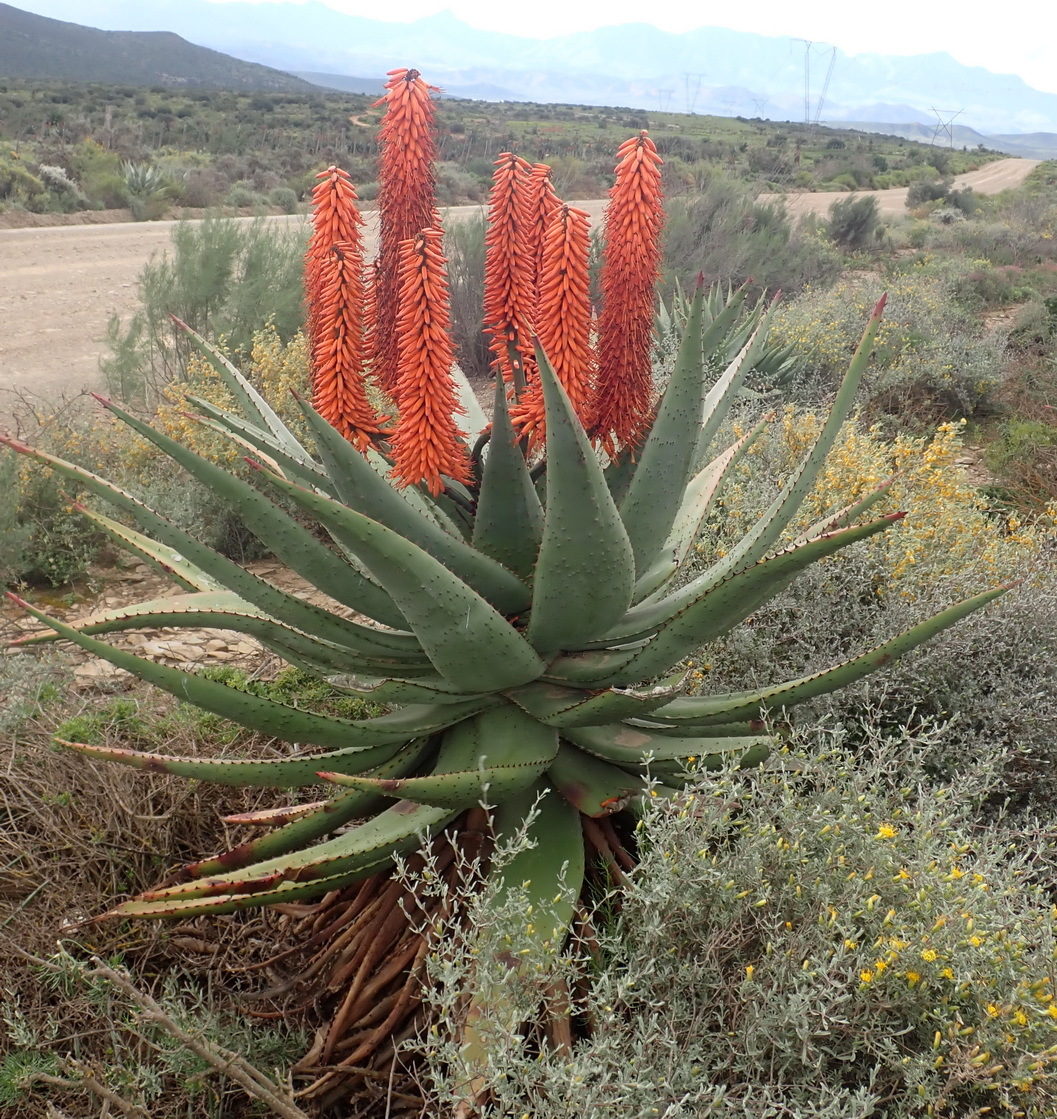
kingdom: Plantae
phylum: Tracheophyta
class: Liliopsida
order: Asparagales
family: Asphodelaceae
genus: Aloe
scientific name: Aloe ferox
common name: Bitter aloe
